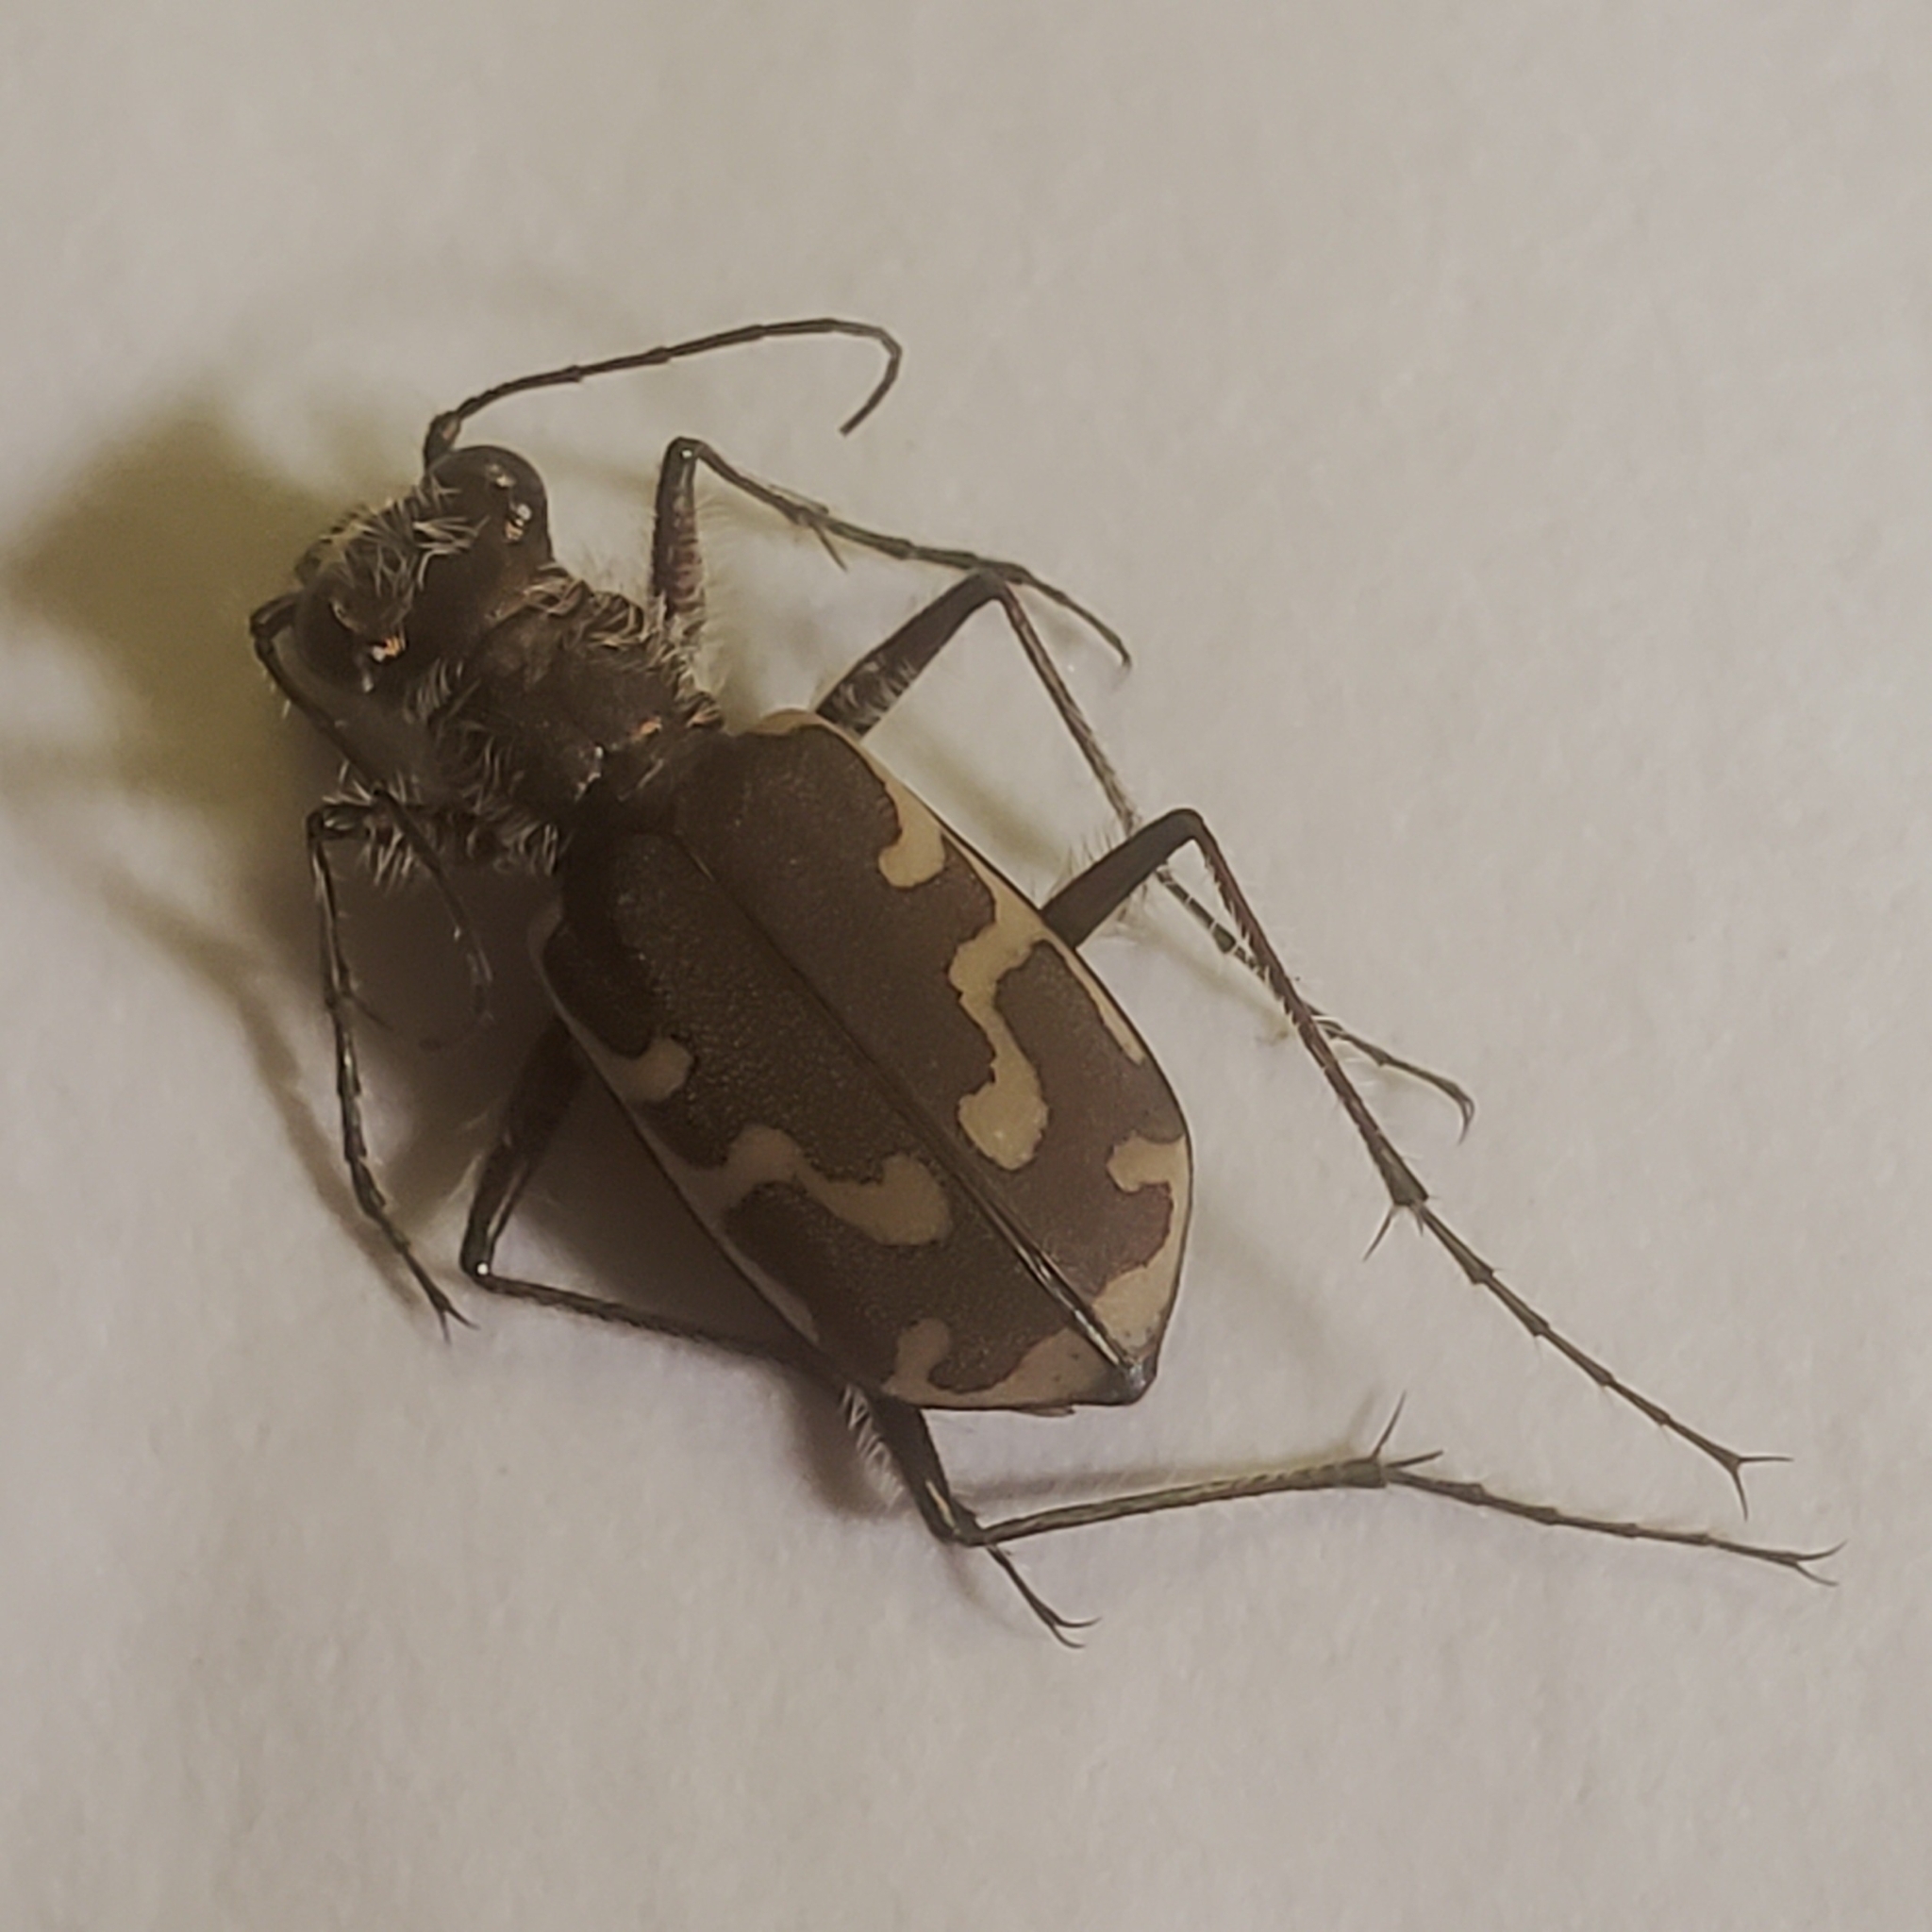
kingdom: Animalia
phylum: Arthropoda
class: Insecta
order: Coleoptera
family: Carabidae
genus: Cicindela
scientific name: Cicindela repanda
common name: Bronzed tiger beetle
